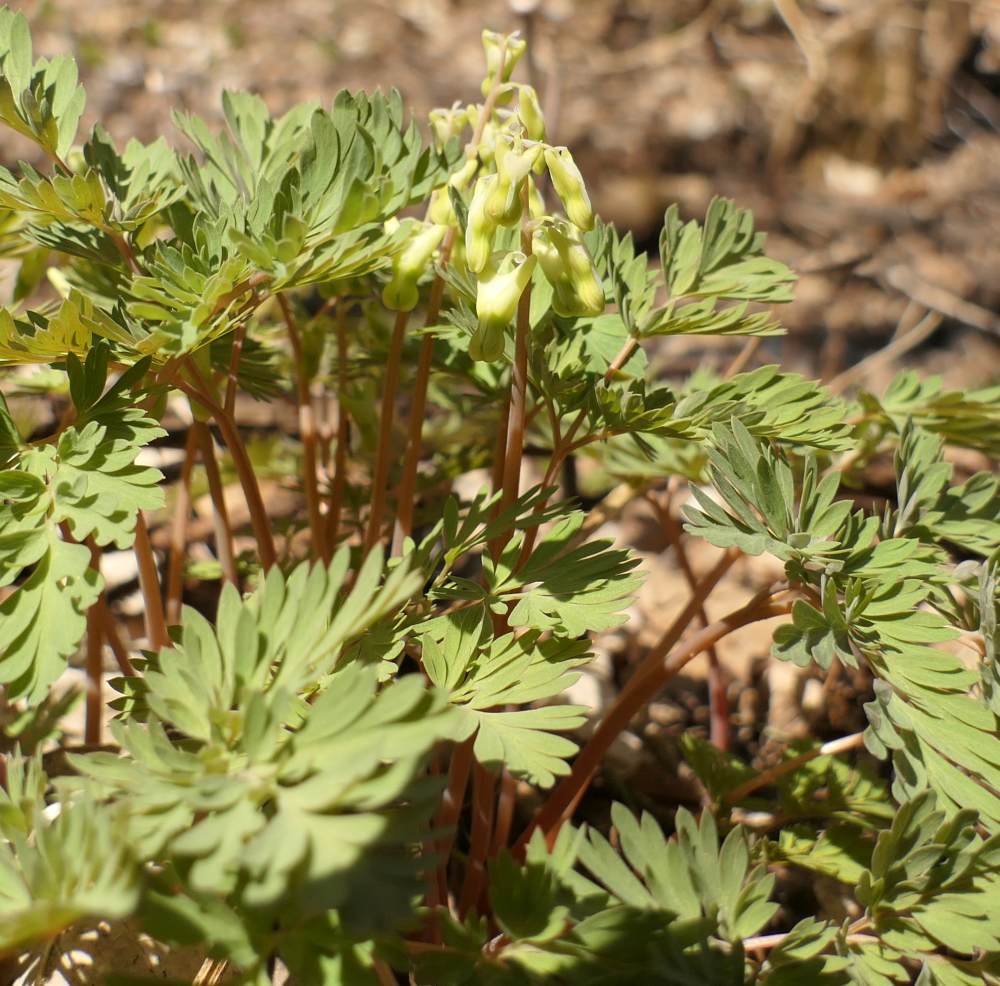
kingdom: Plantae
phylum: Tracheophyta
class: Magnoliopsida
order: Ranunculales
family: Papaveraceae
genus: Dicentra
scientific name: Dicentra cucullaria
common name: Dutchman's breeches
